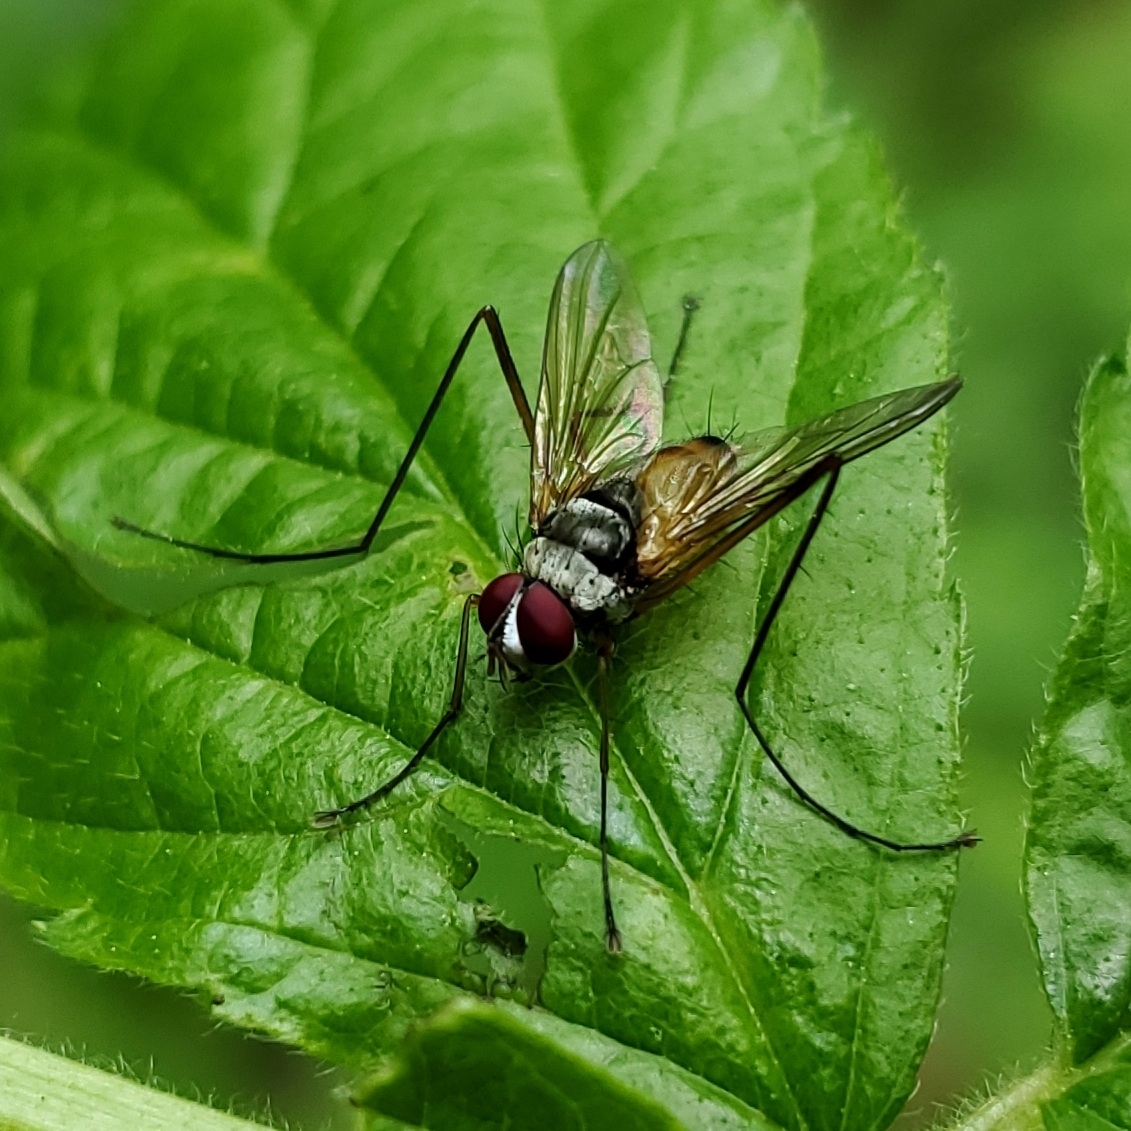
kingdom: Animalia
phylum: Arthropoda
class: Insecta
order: Diptera
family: Tachinidae
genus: Cholomyia
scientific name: Cholomyia inaequipes
